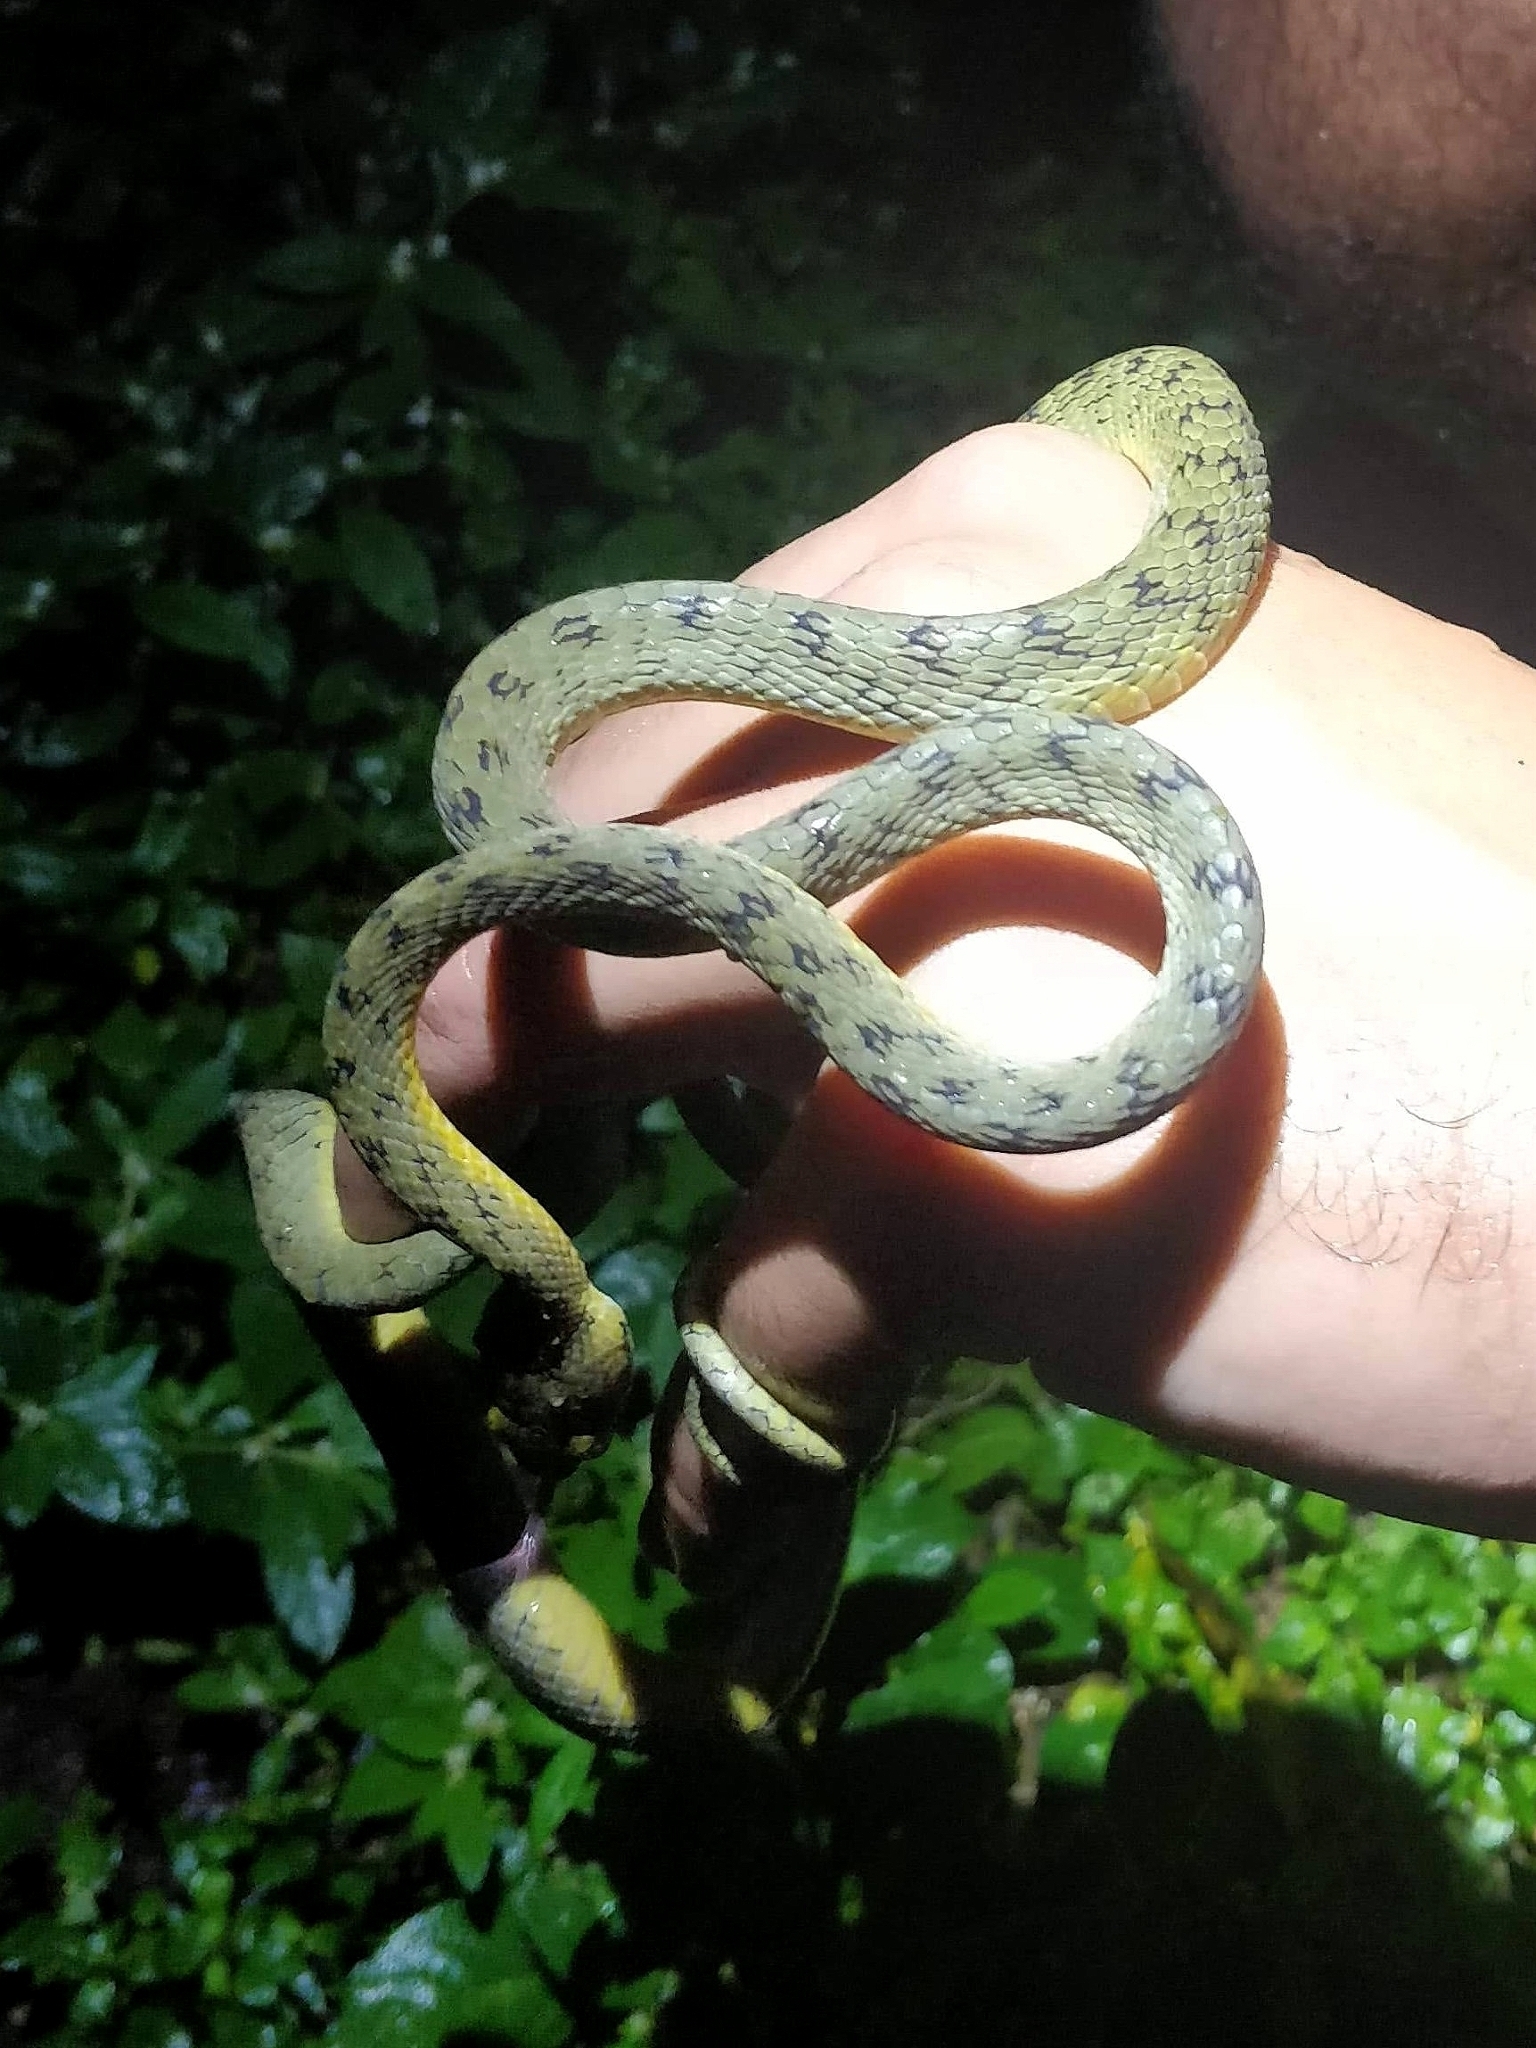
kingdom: Animalia
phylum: Chordata
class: Squamata
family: Colubridae
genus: Boiga
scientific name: Boiga flaviviridis
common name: Yellow-green cat snake
